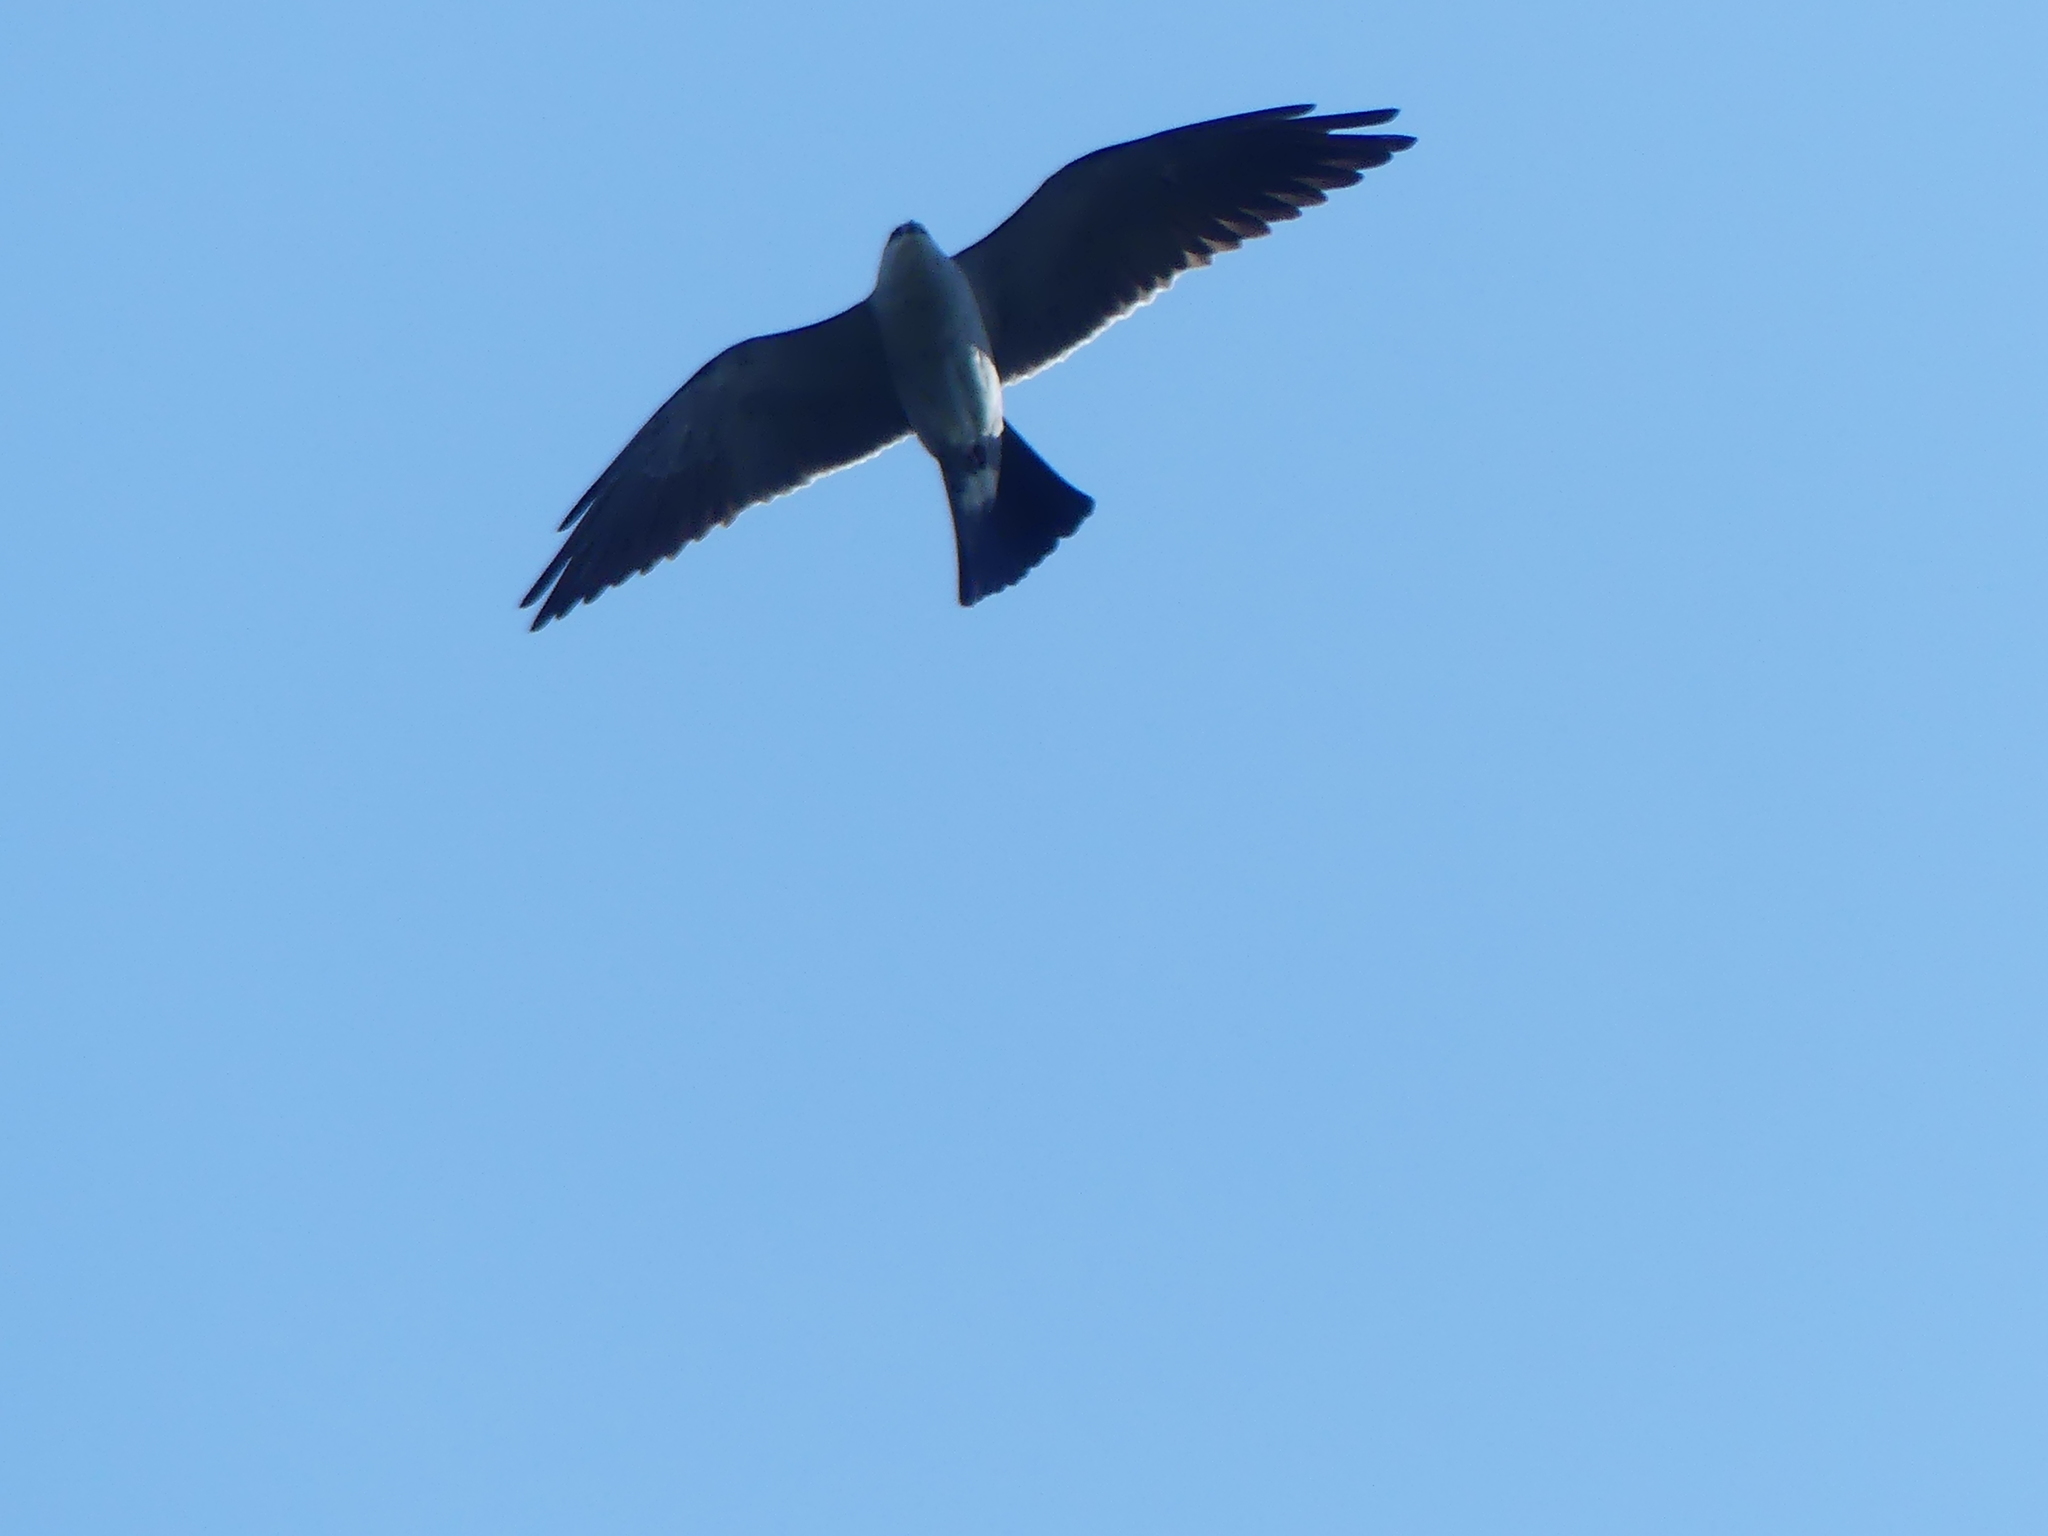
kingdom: Animalia
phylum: Chordata
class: Aves
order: Accipitriformes
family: Accipitridae
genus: Ictinia
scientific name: Ictinia mississippiensis
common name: Mississippi kite
